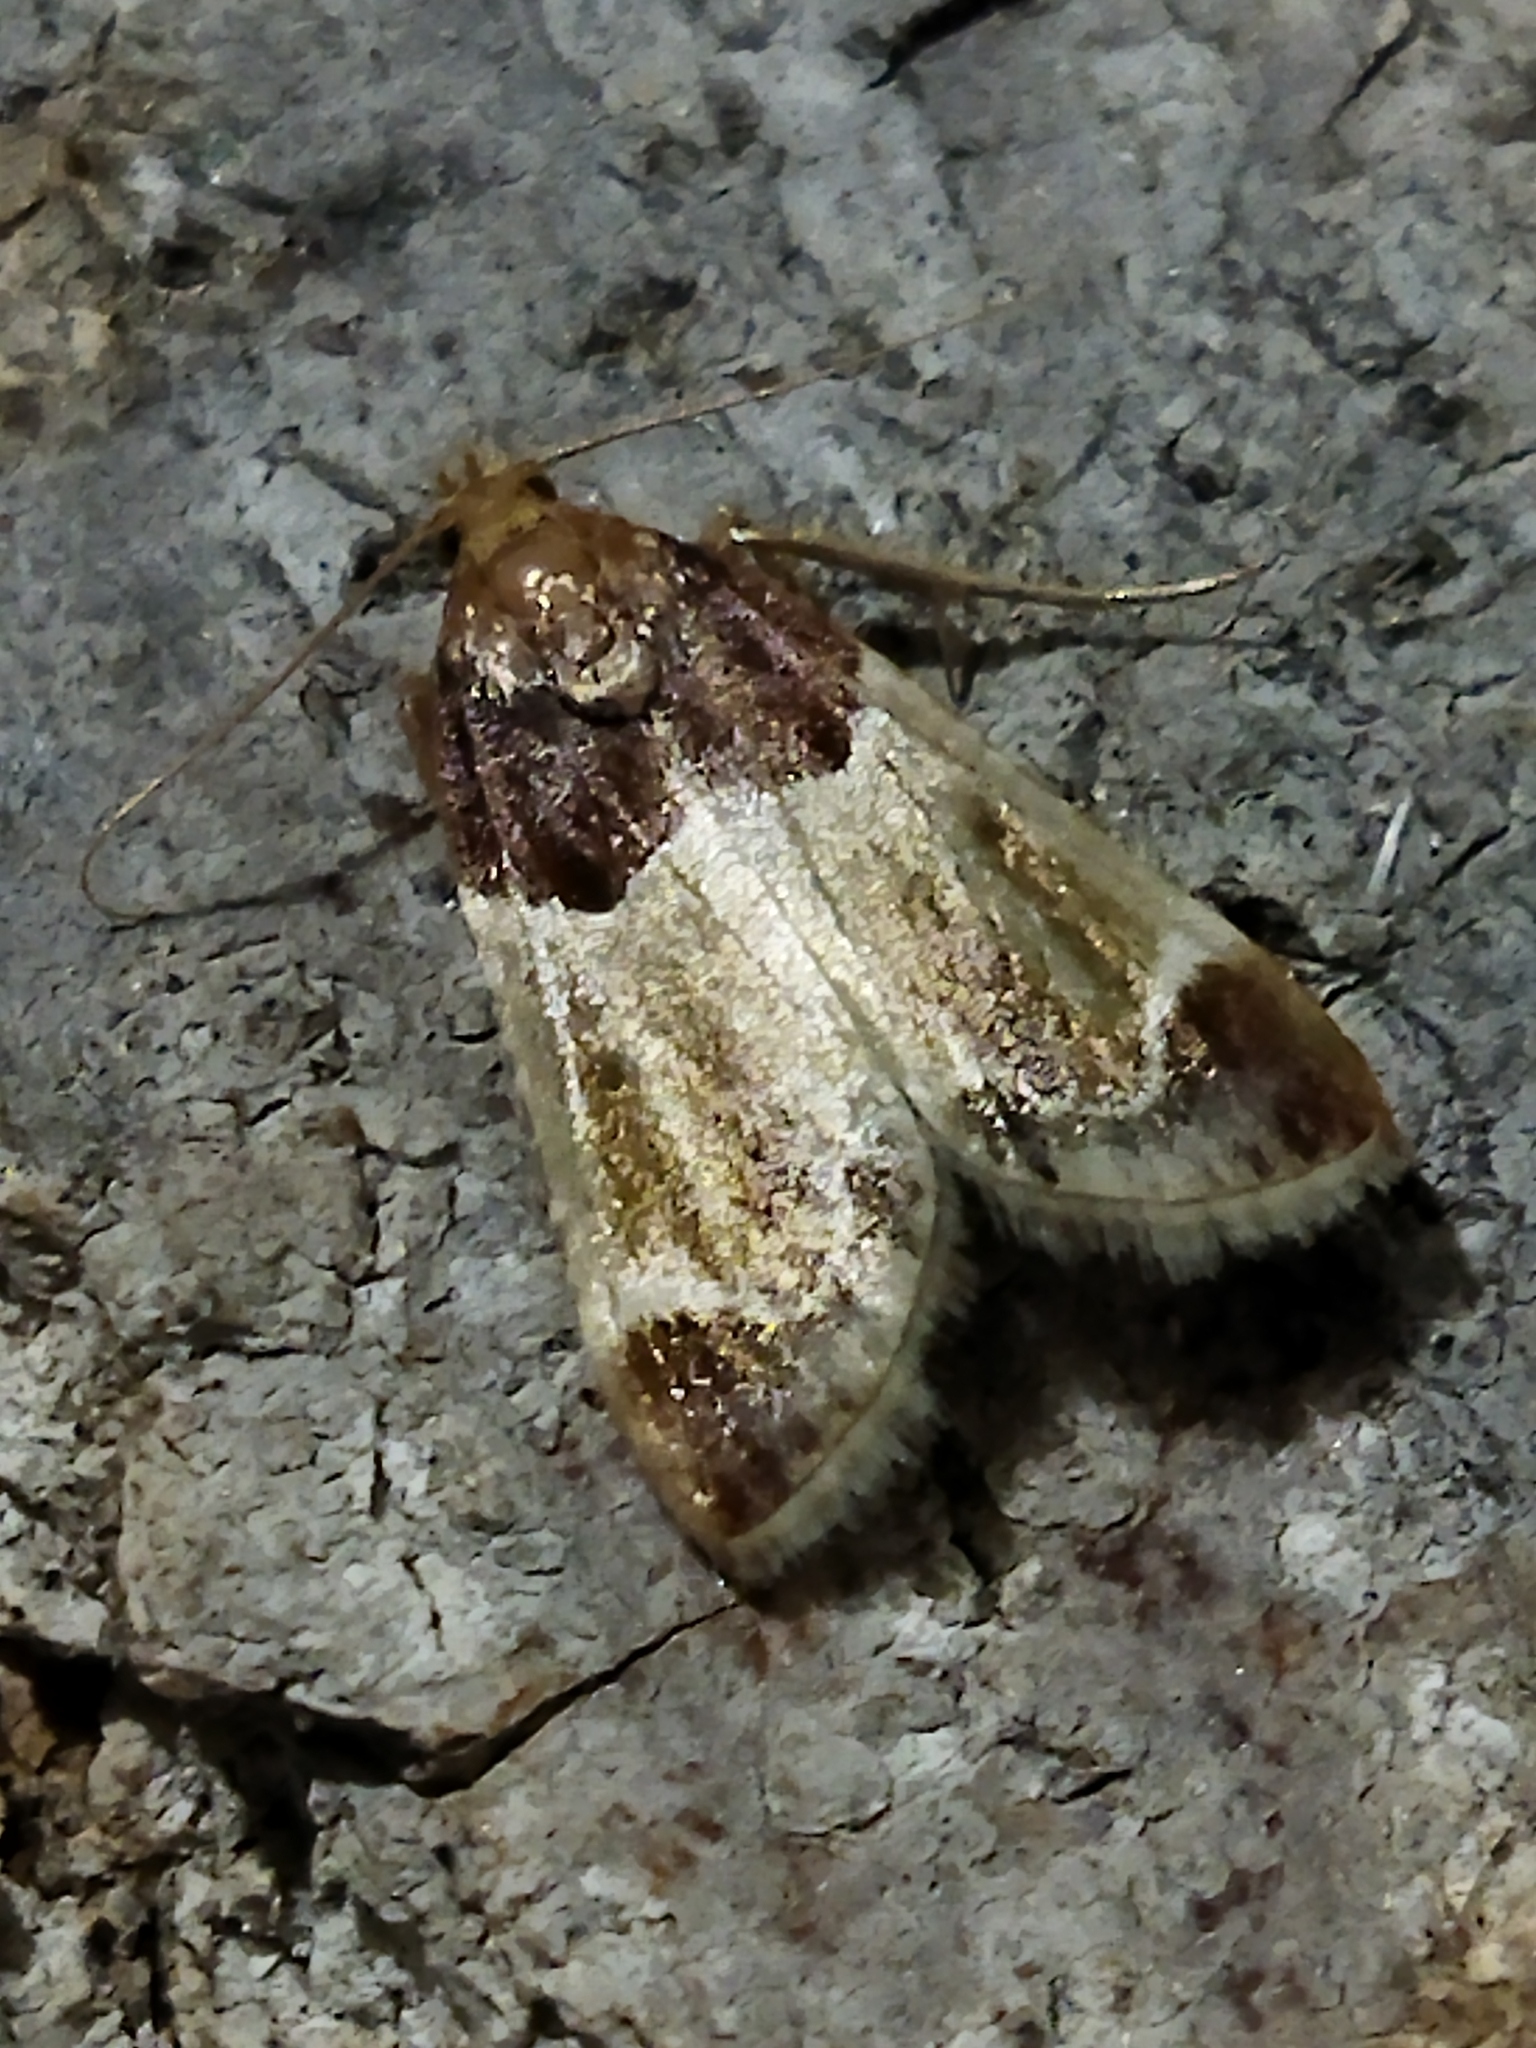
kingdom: Animalia
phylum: Arthropoda
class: Insecta
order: Lepidoptera
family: Pyralidae
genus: Pyralis
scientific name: Pyralis farinalis
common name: Meal moth
